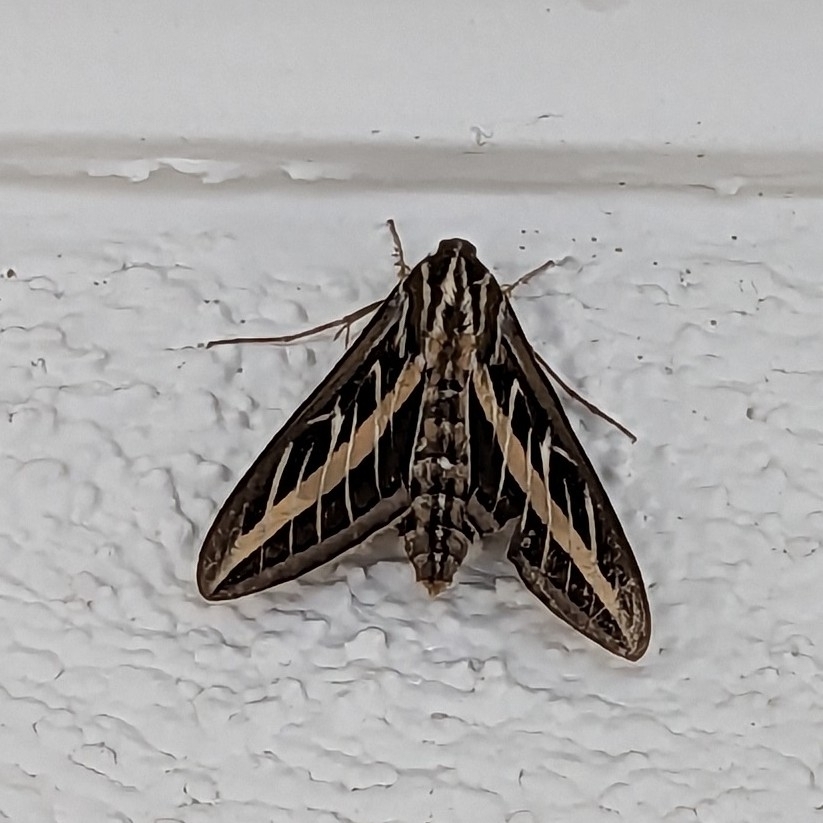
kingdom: Animalia
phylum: Arthropoda
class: Insecta
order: Lepidoptera
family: Sphingidae
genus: Hyles
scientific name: Hyles lineata
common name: White-lined sphinx
